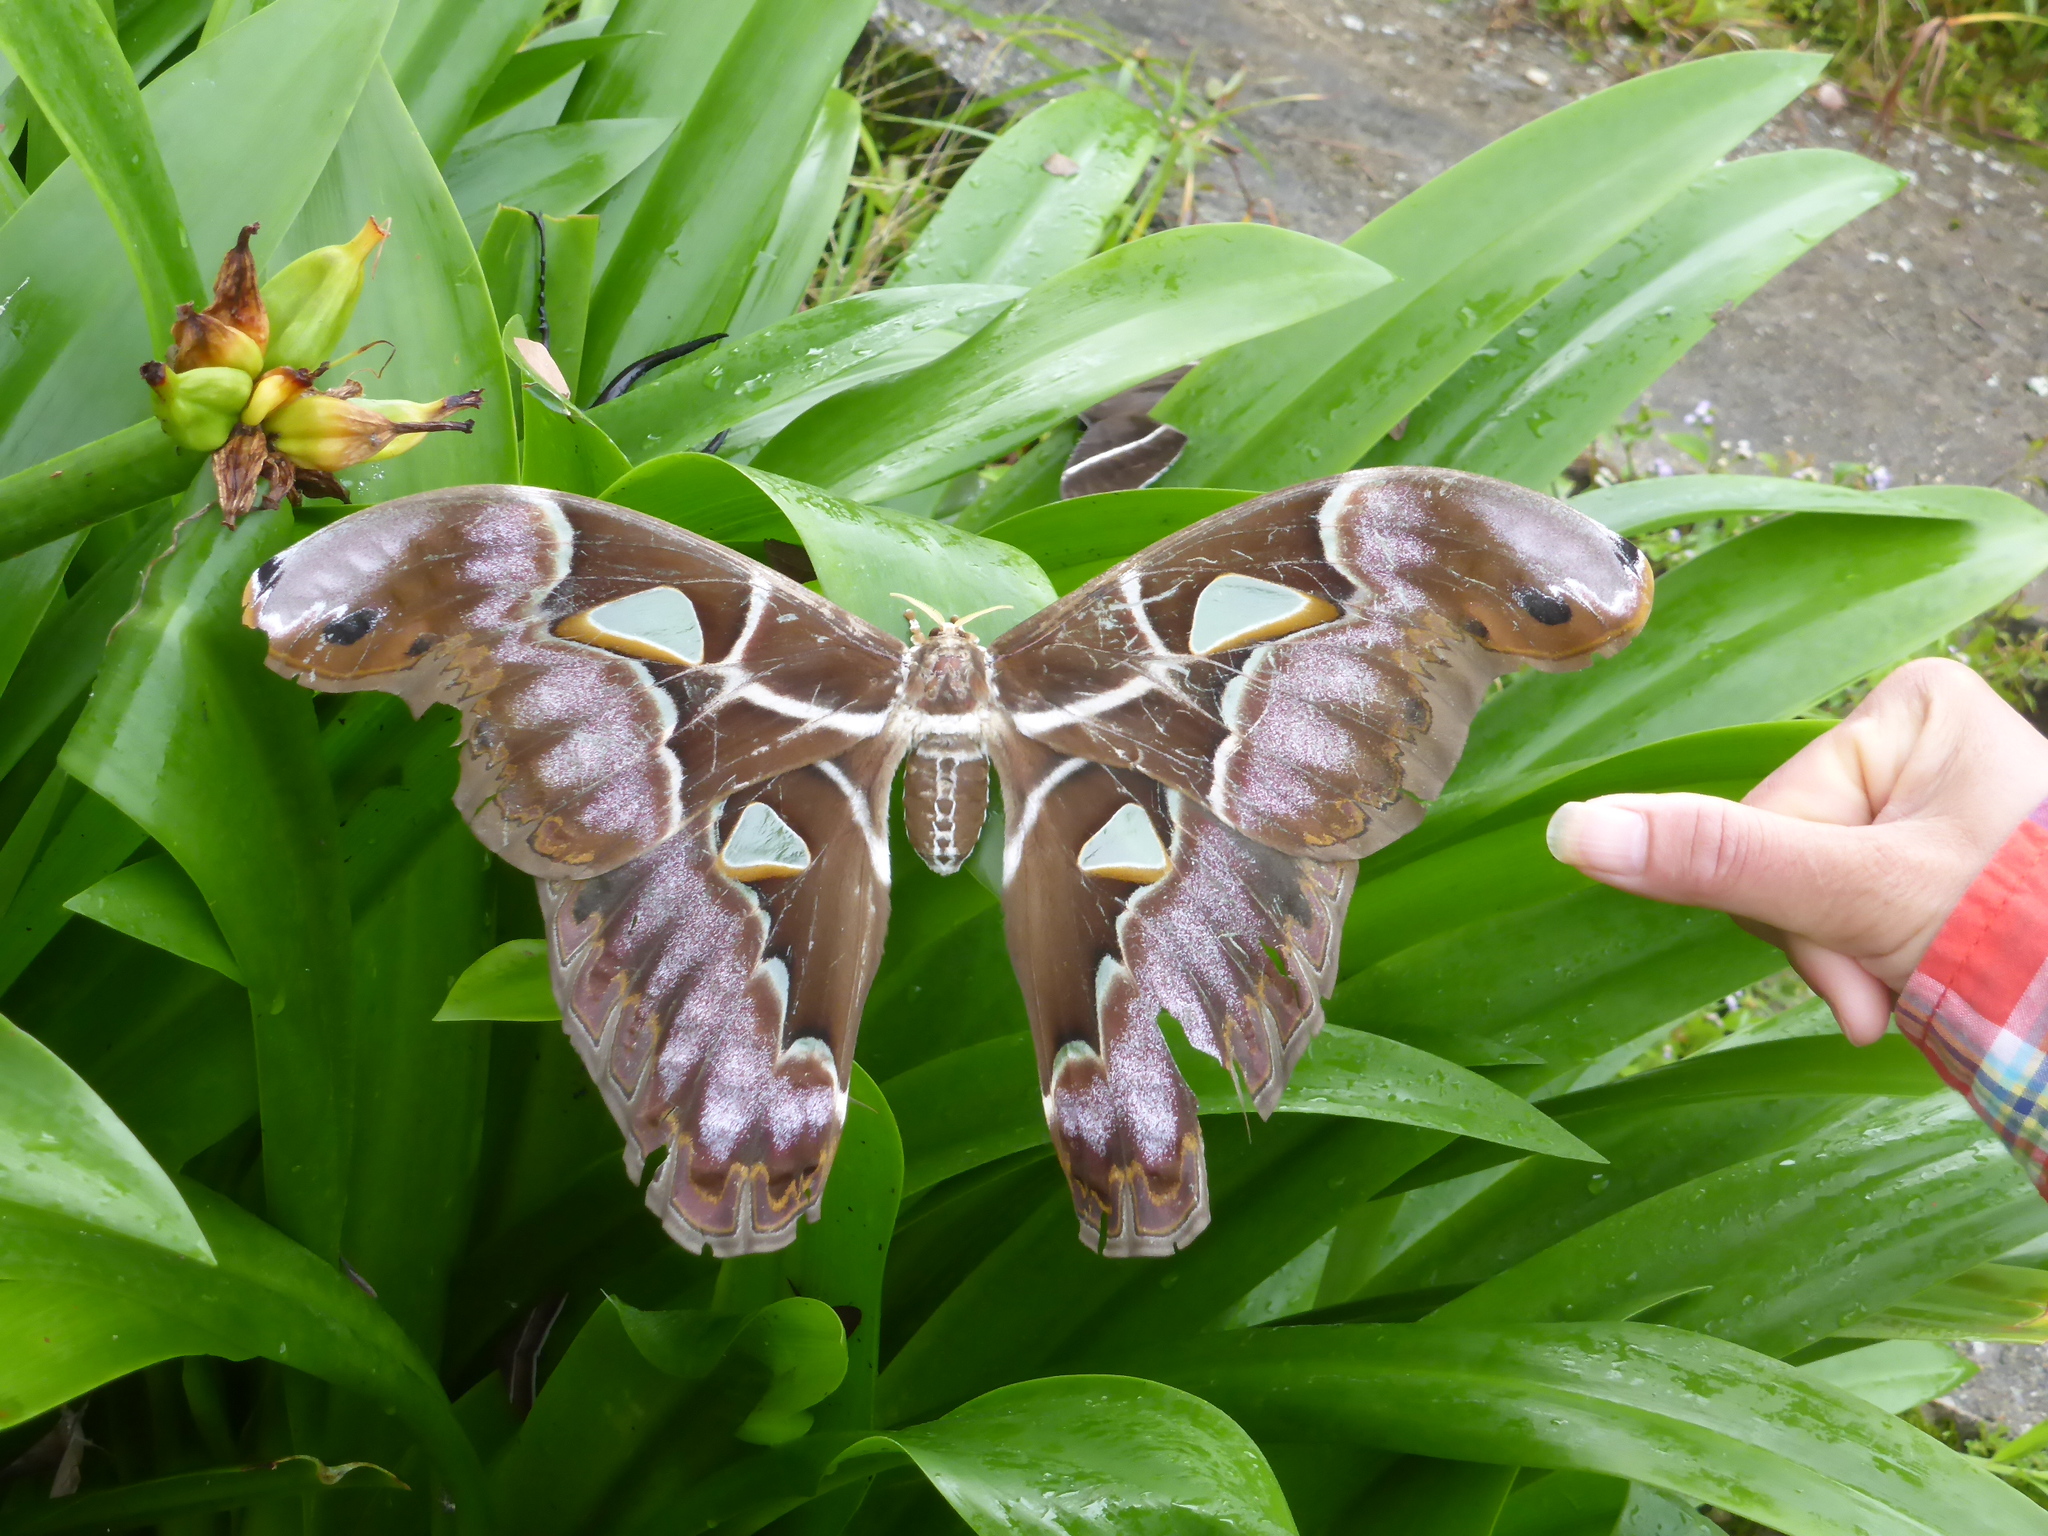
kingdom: Animalia
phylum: Arthropoda
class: Insecta
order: Lepidoptera
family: Saturniidae
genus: Archaeoattacus
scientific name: Archaeoattacus staudingeri
